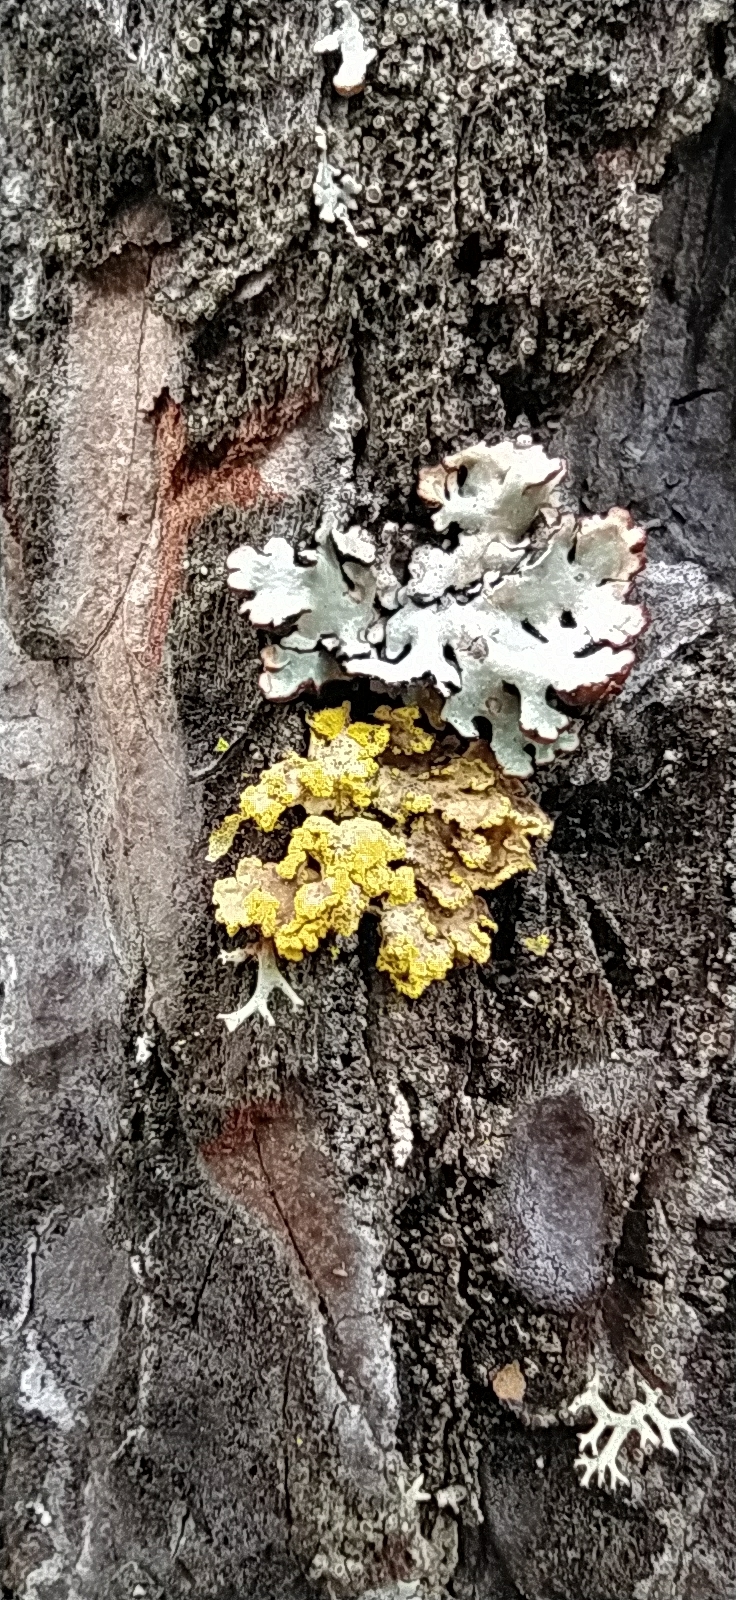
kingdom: Fungi
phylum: Ascomycota
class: Lecanoromycetes
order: Lecanorales
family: Parmeliaceae
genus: Vulpicida
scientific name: Vulpicida pinastri
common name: Powdered sunshine lichen
